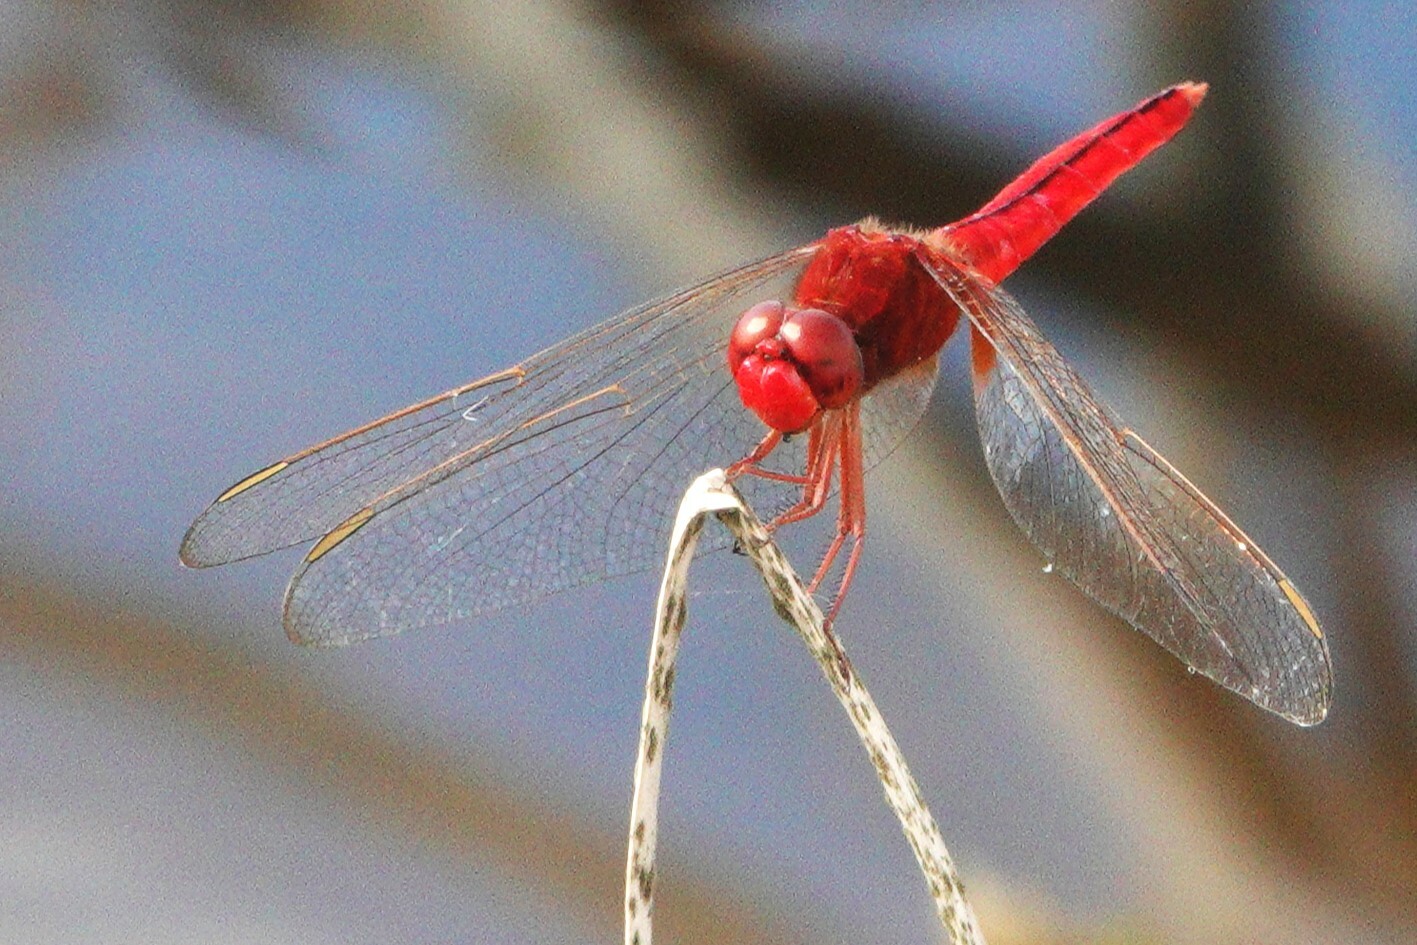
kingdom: Animalia
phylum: Arthropoda
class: Insecta
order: Odonata
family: Libellulidae
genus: Crocothemis
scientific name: Crocothemis servilia
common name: Scarlet skimmer
